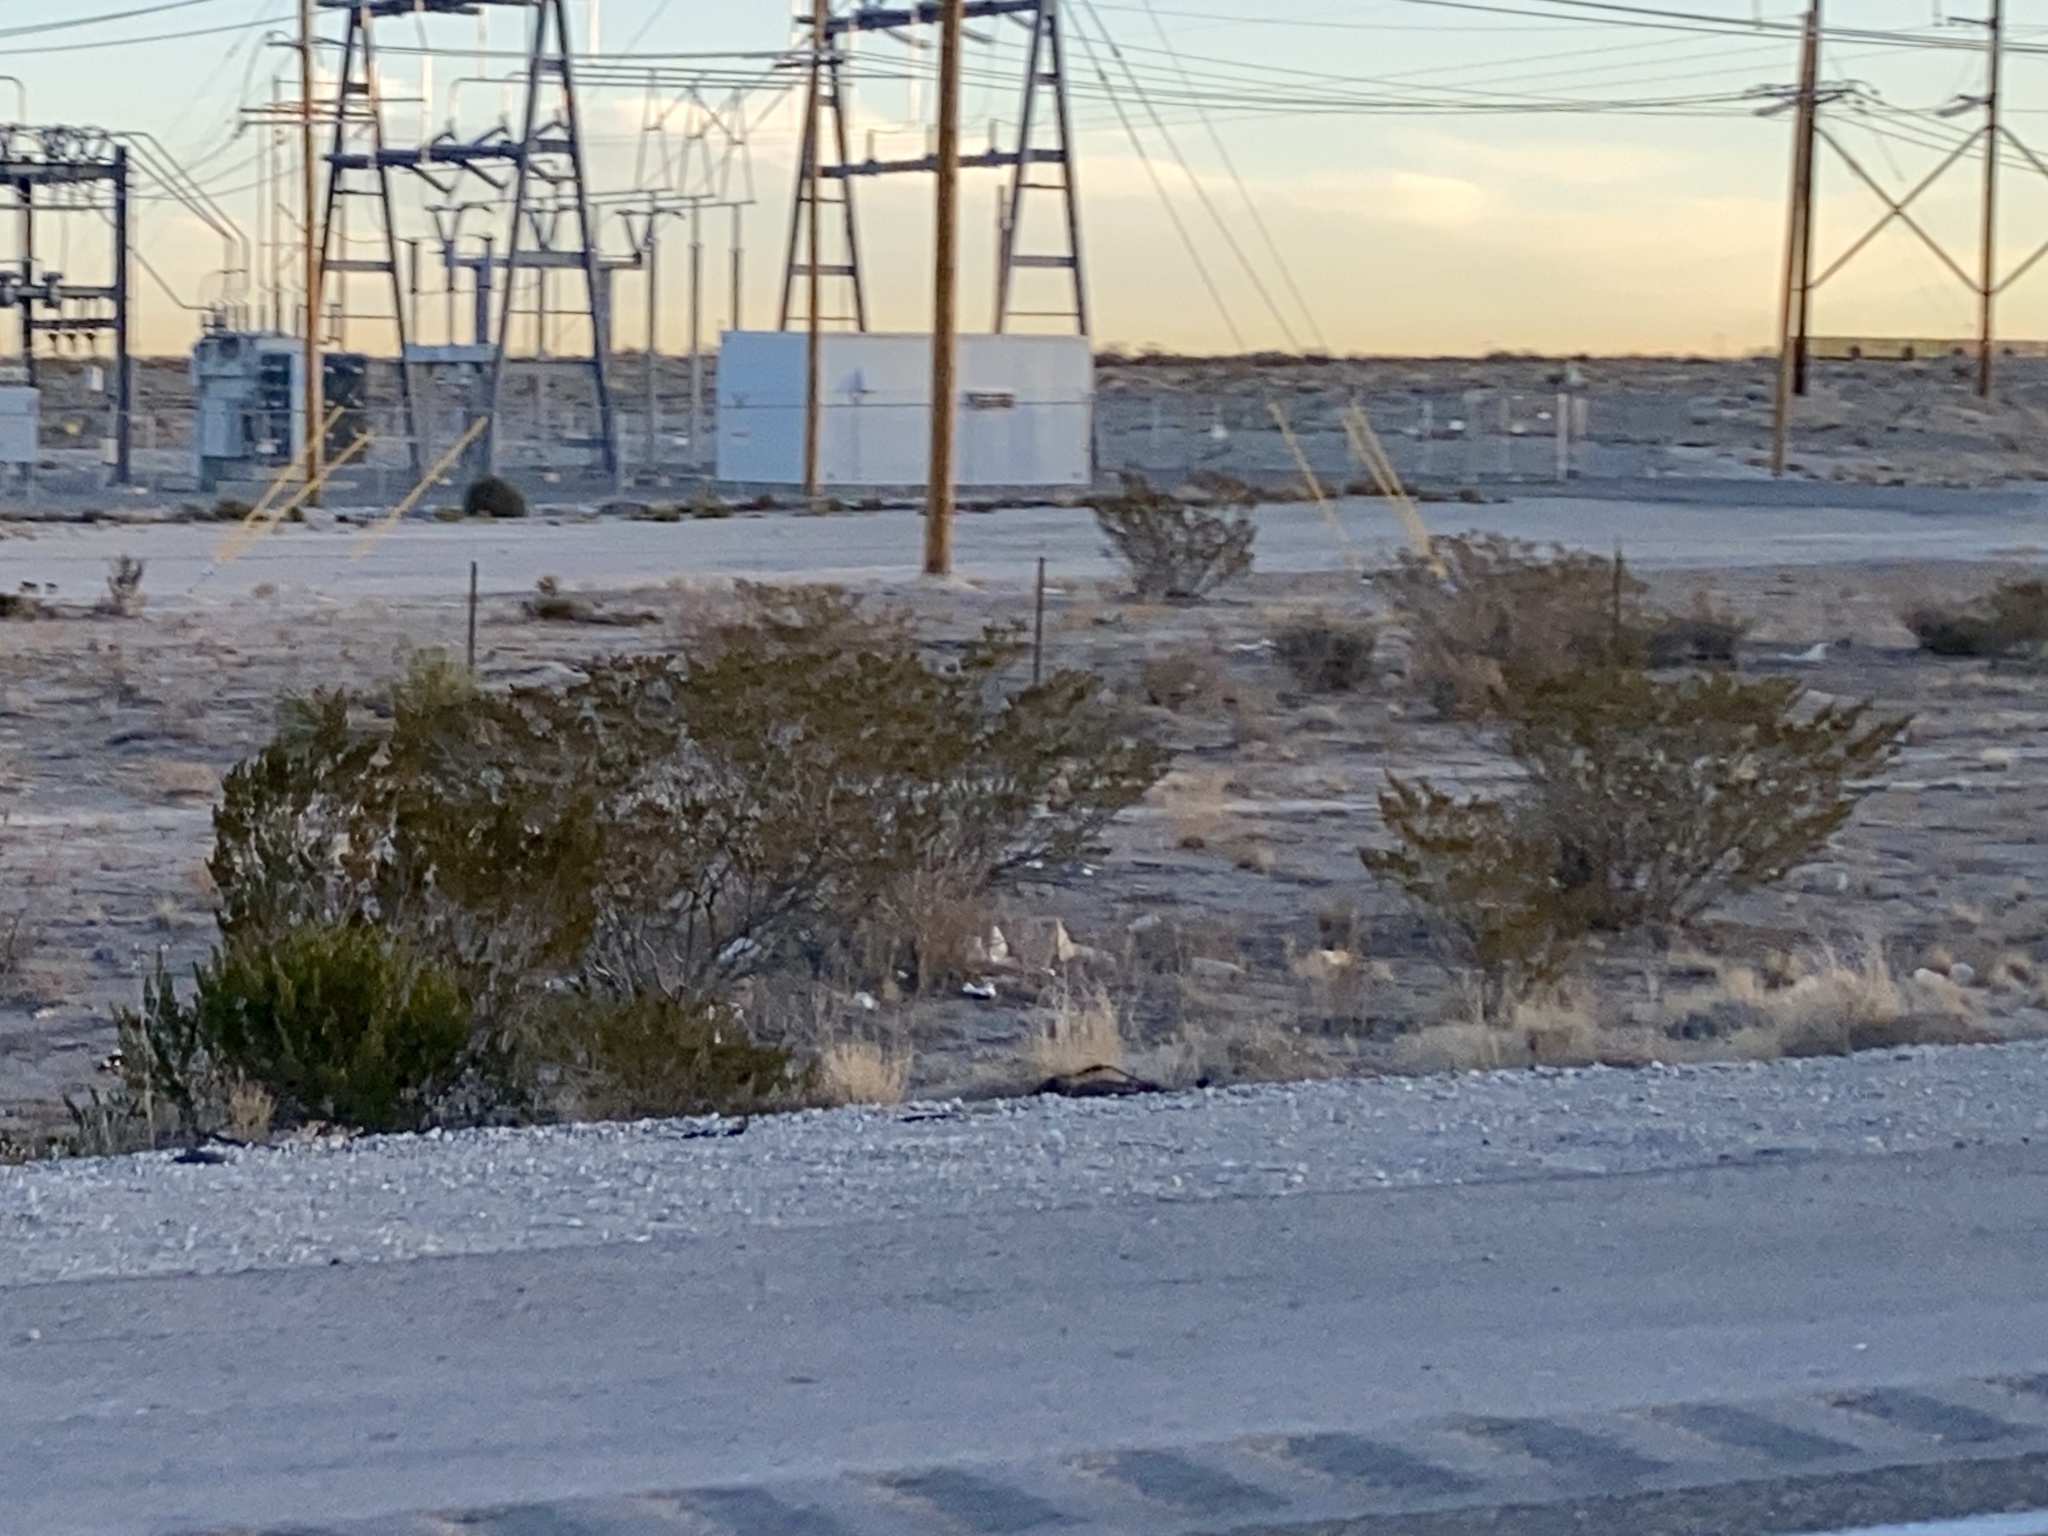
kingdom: Plantae
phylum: Tracheophyta
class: Magnoliopsida
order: Zygophyllales
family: Zygophyllaceae
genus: Larrea
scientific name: Larrea tridentata
